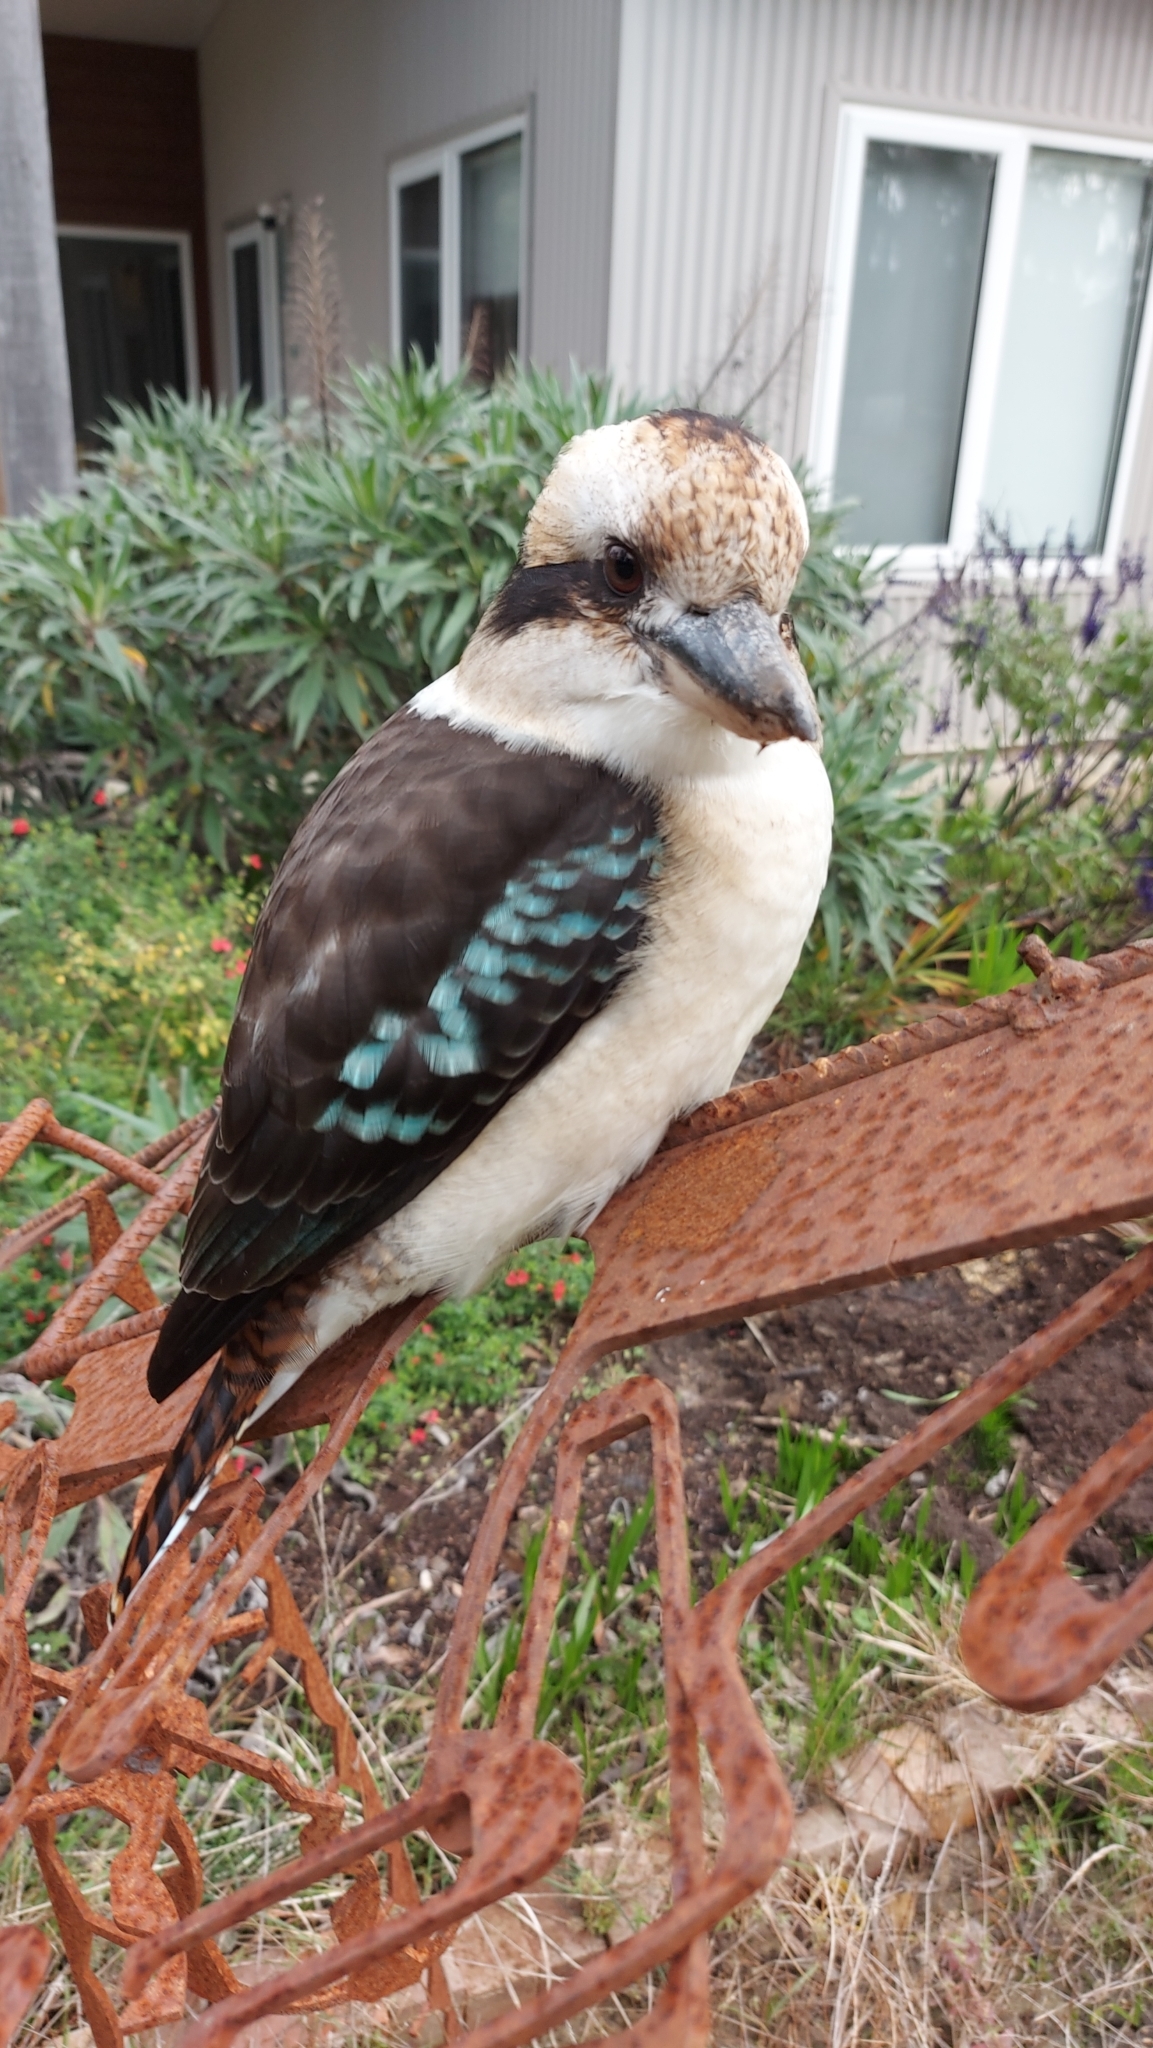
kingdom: Animalia
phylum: Chordata
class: Aves
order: Coraciiformes
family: Alcedinidae
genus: Dacelo
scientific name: Dacelo novaeguineae
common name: Laughing kookaburra
